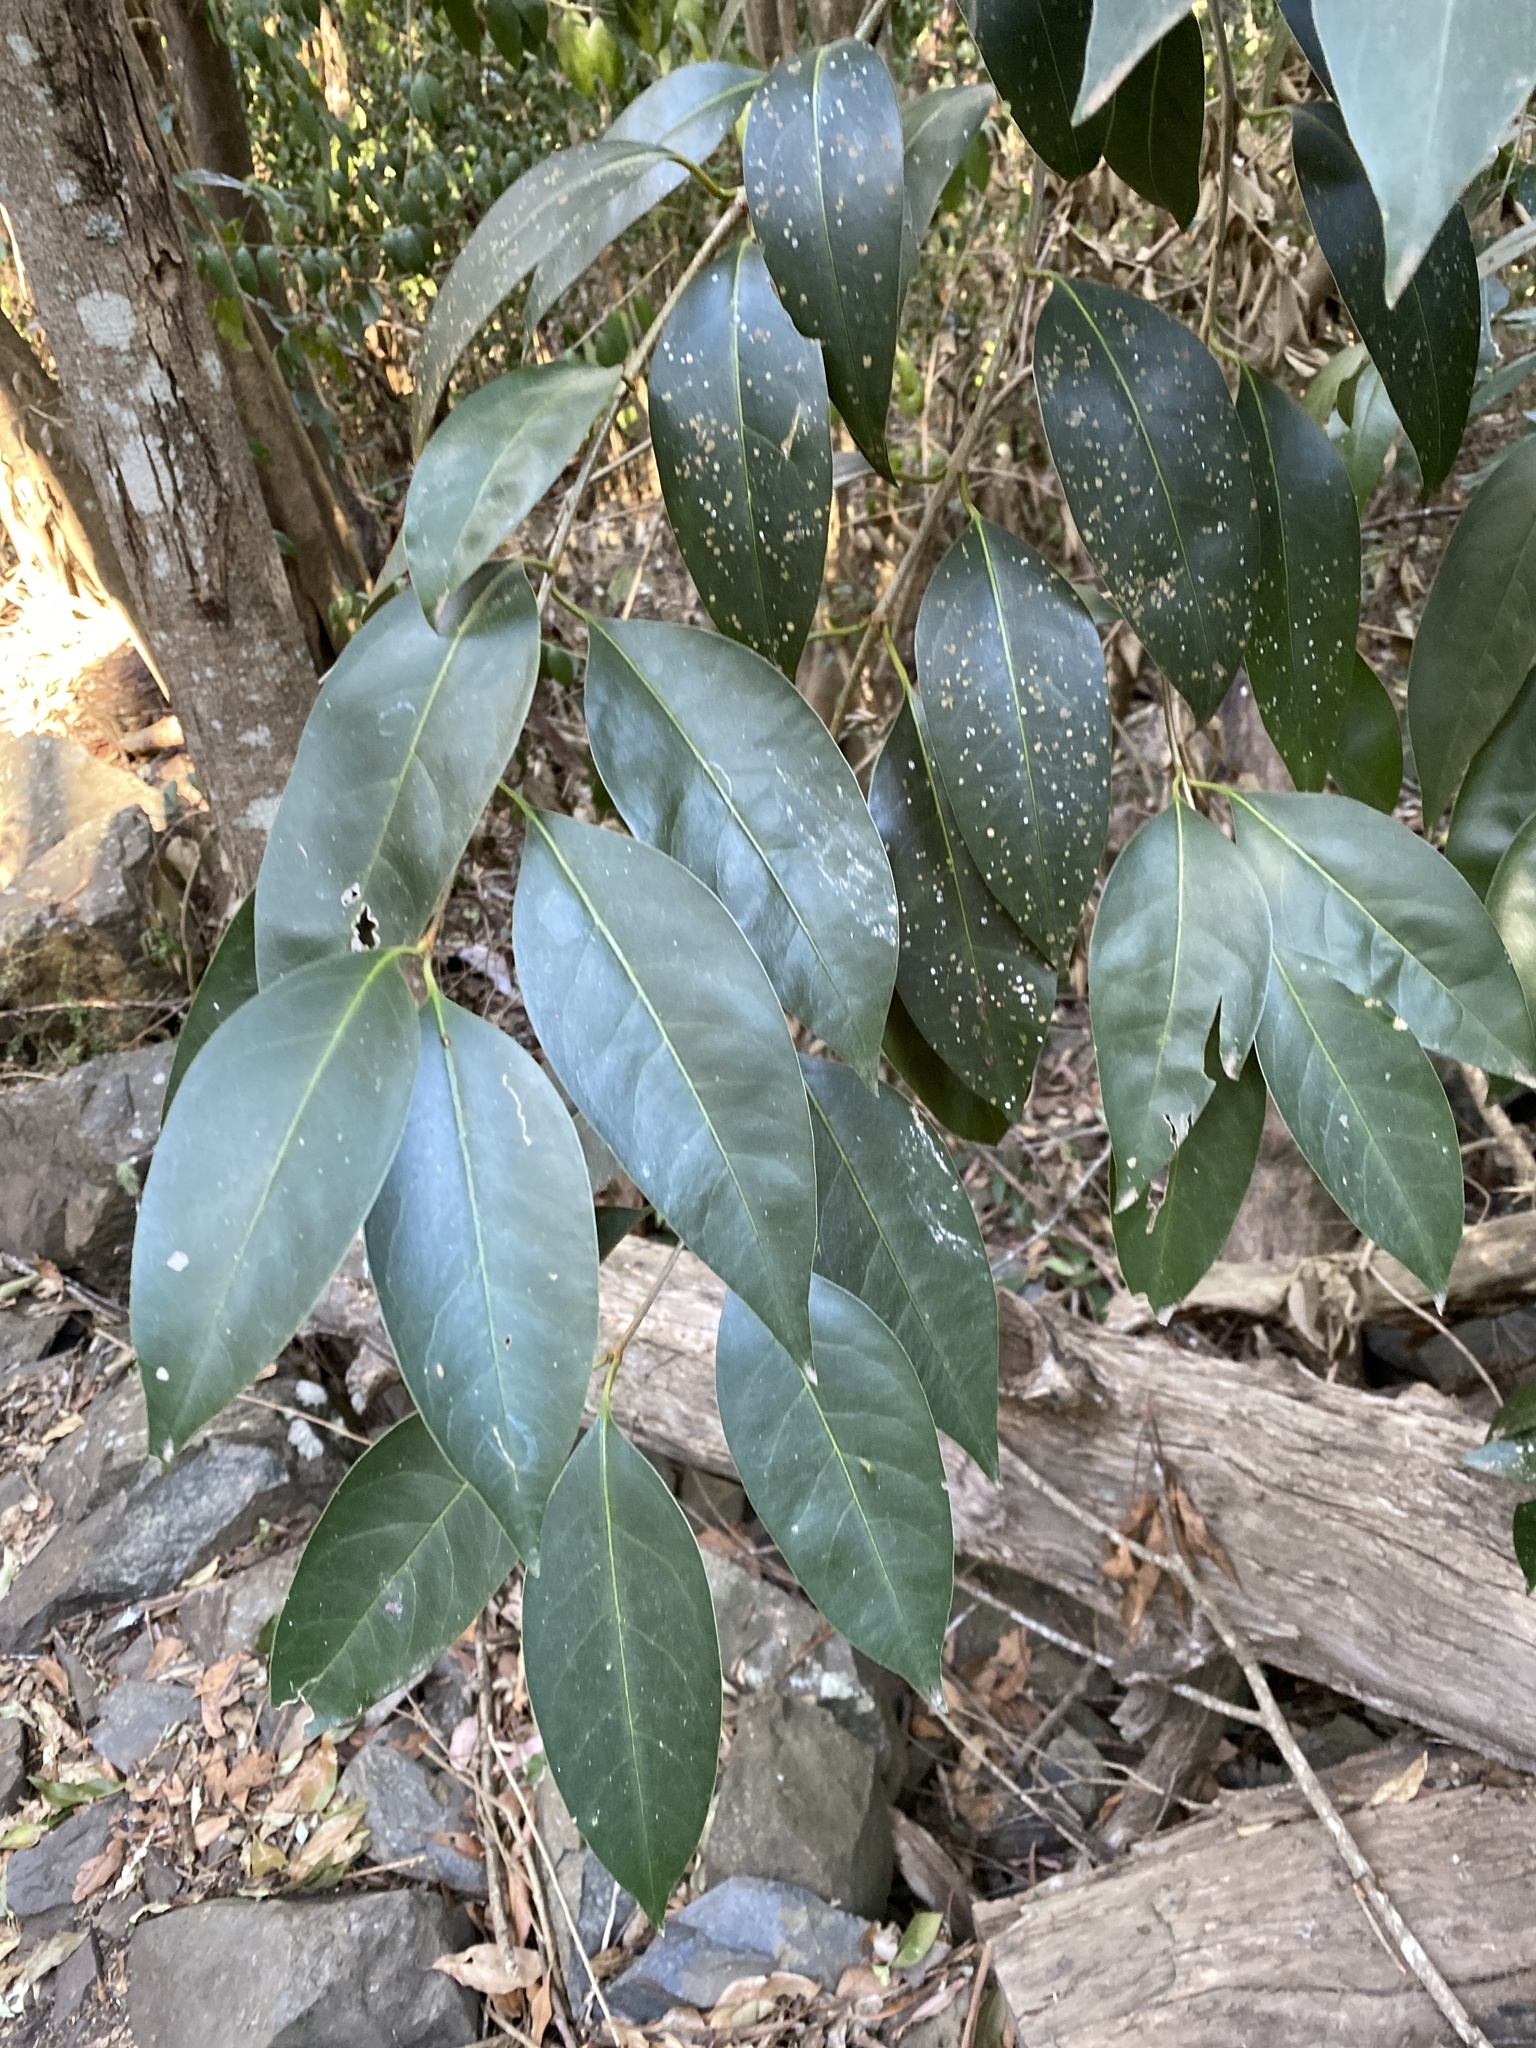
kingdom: Plantae
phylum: Tracheophyta
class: Magnoliopsida
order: Lamiales
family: Oleaceae
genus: Ligustrum
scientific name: Ligustrum lucidum
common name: Glossy privet
